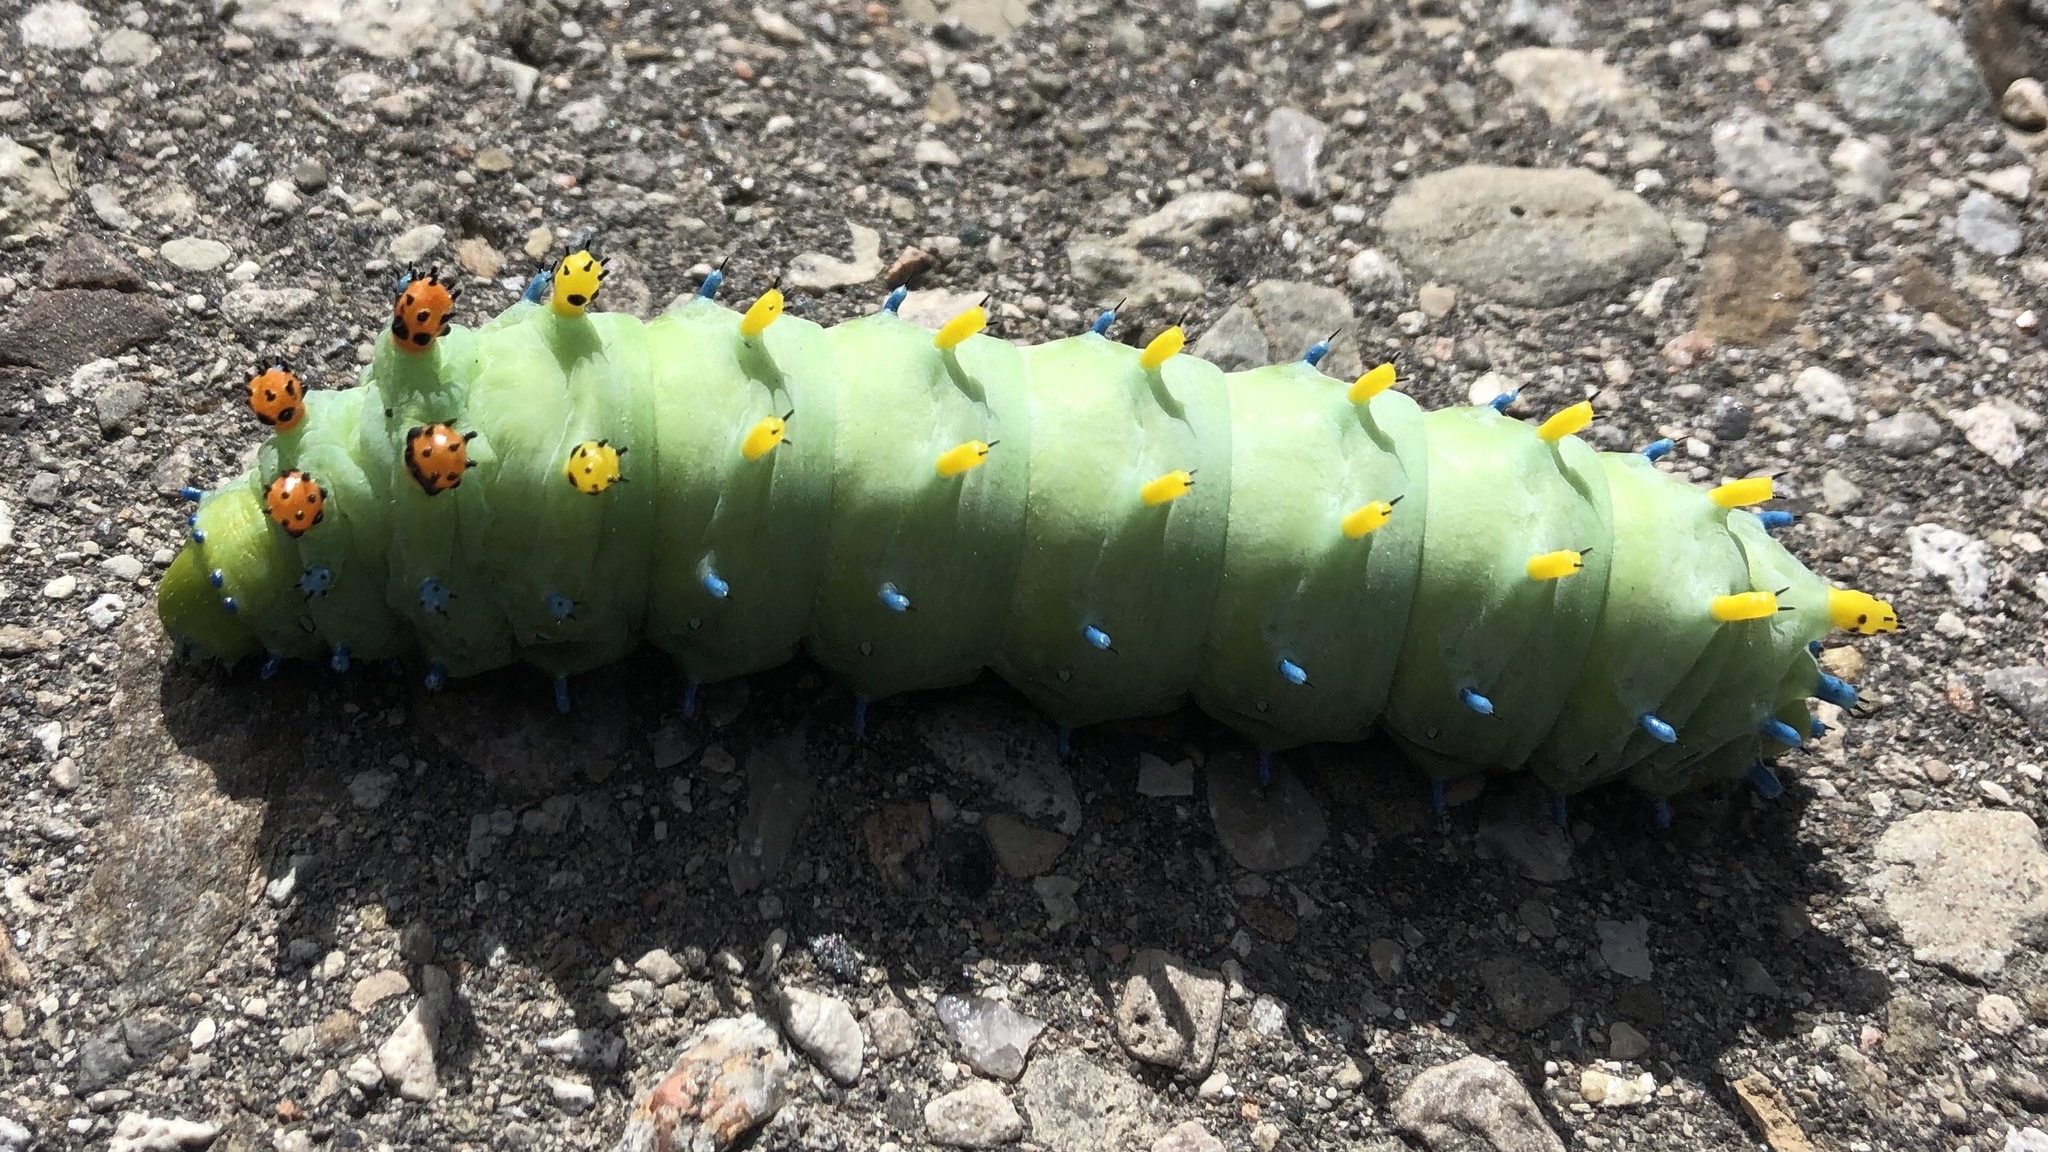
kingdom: Animalia
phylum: Arthropoda
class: Insecta
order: Lepidoptera
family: Saturniidae
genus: Hyalophora
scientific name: Hyalophora cecropia
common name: Cecropia silkmoth
